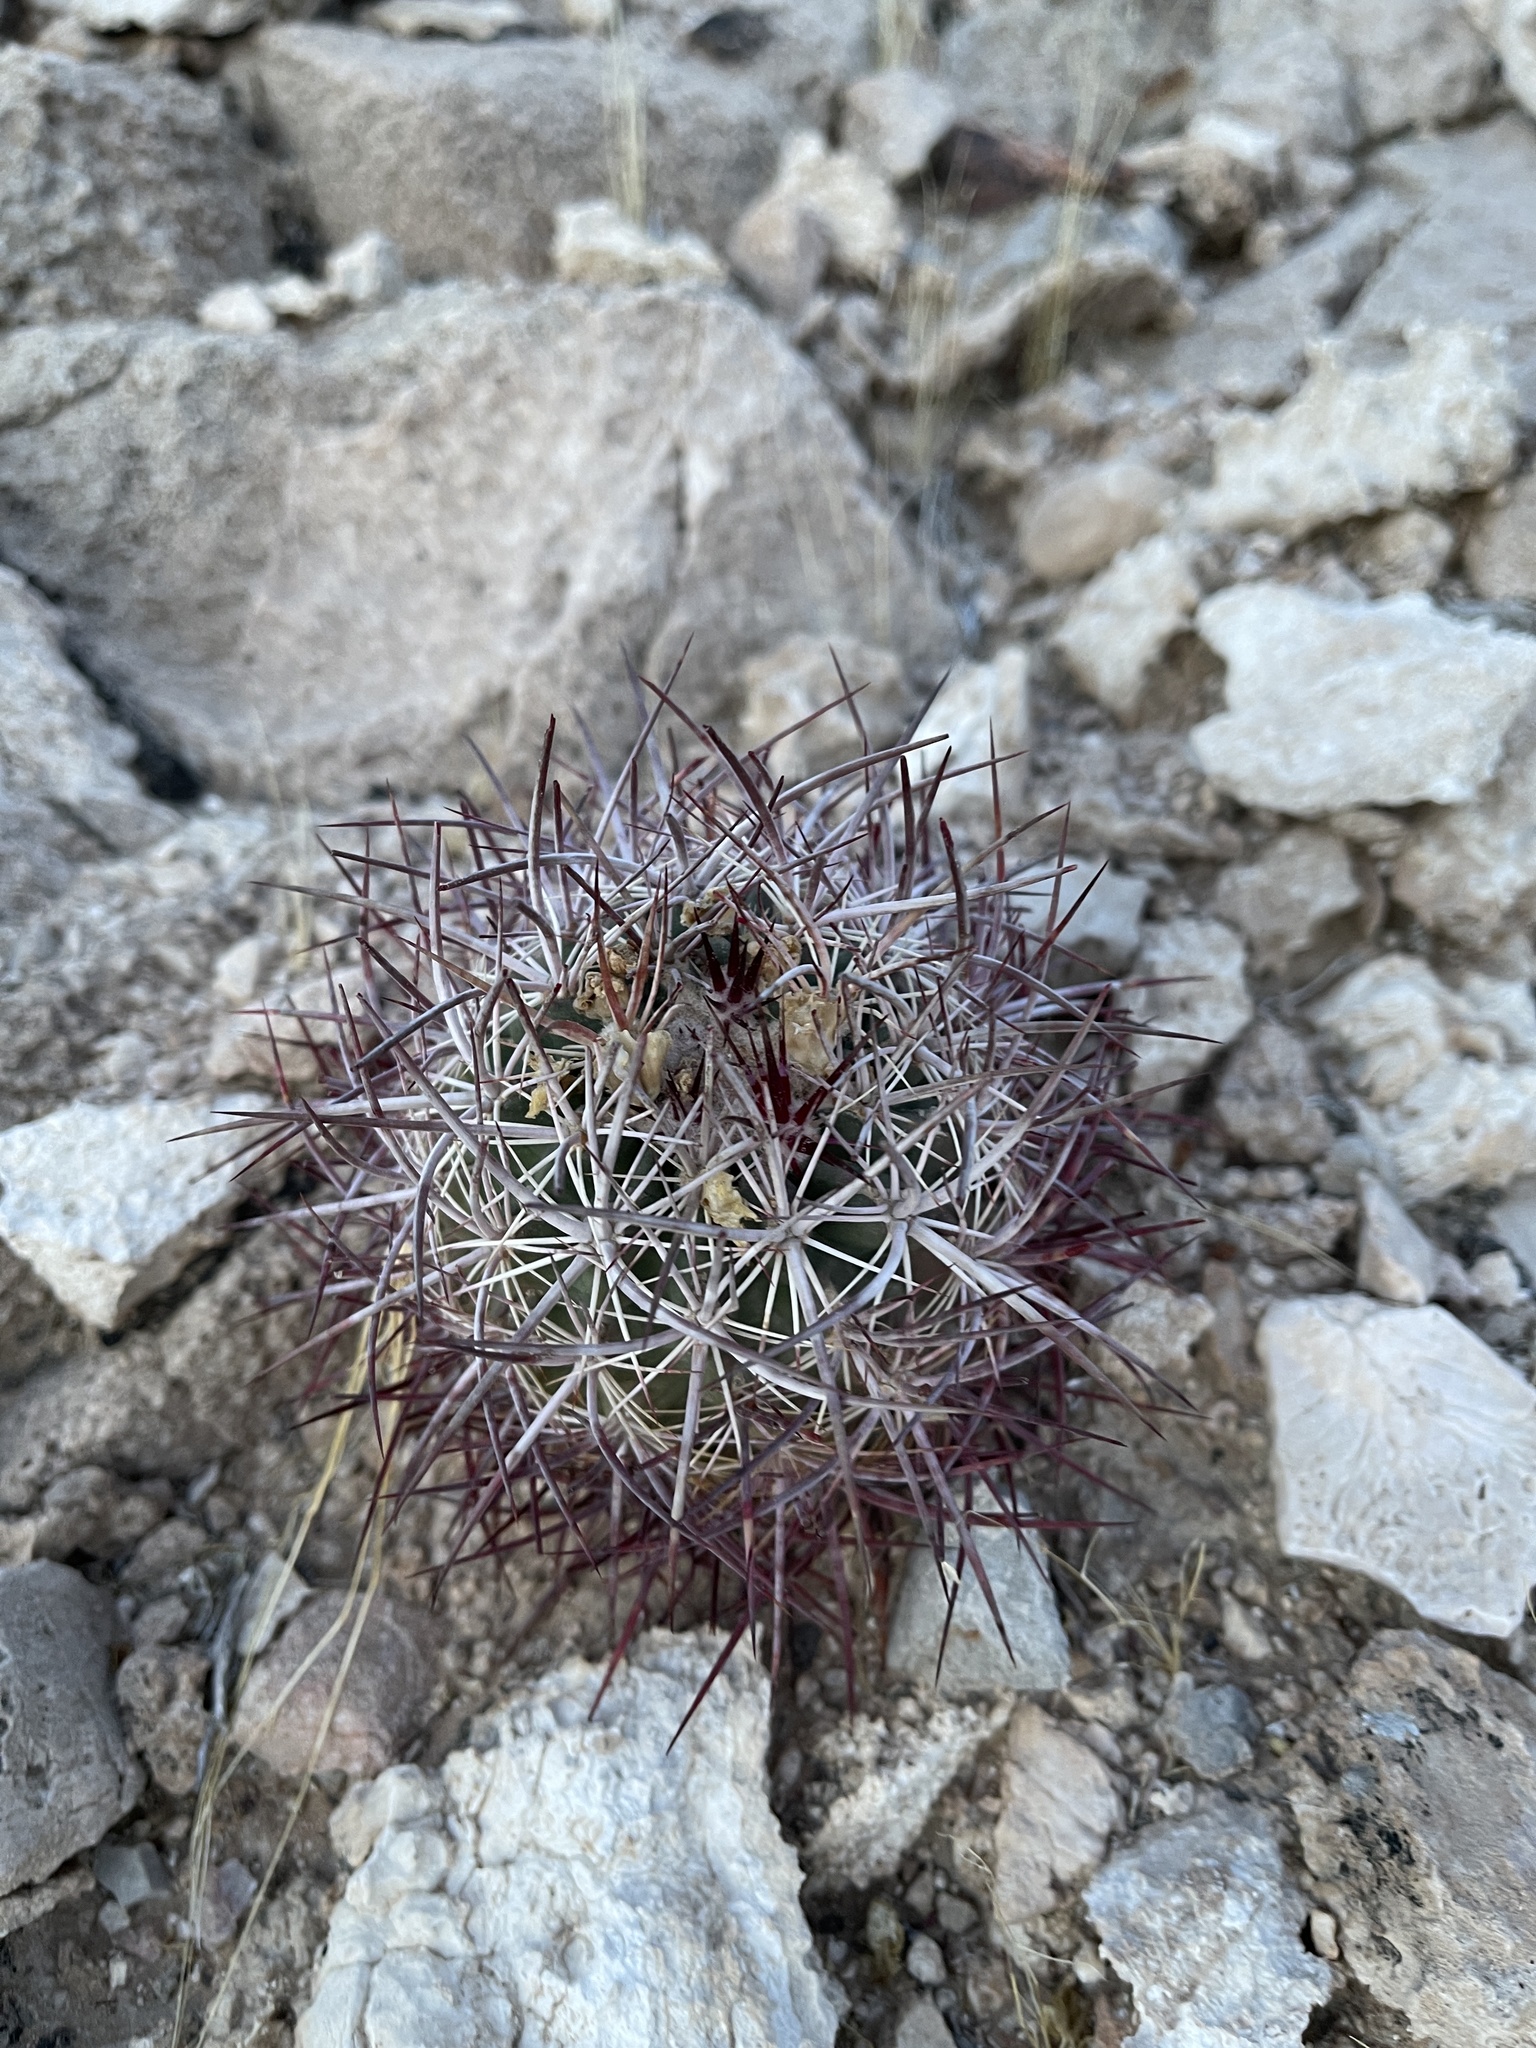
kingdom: Plantae
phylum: Tracheophyta
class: Magnoliopsida
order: Caryophyllales
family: Cactaceae
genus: Sclerocactus
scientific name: Sclerocactus johnsonii
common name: Eight-spine fishhook cactus
